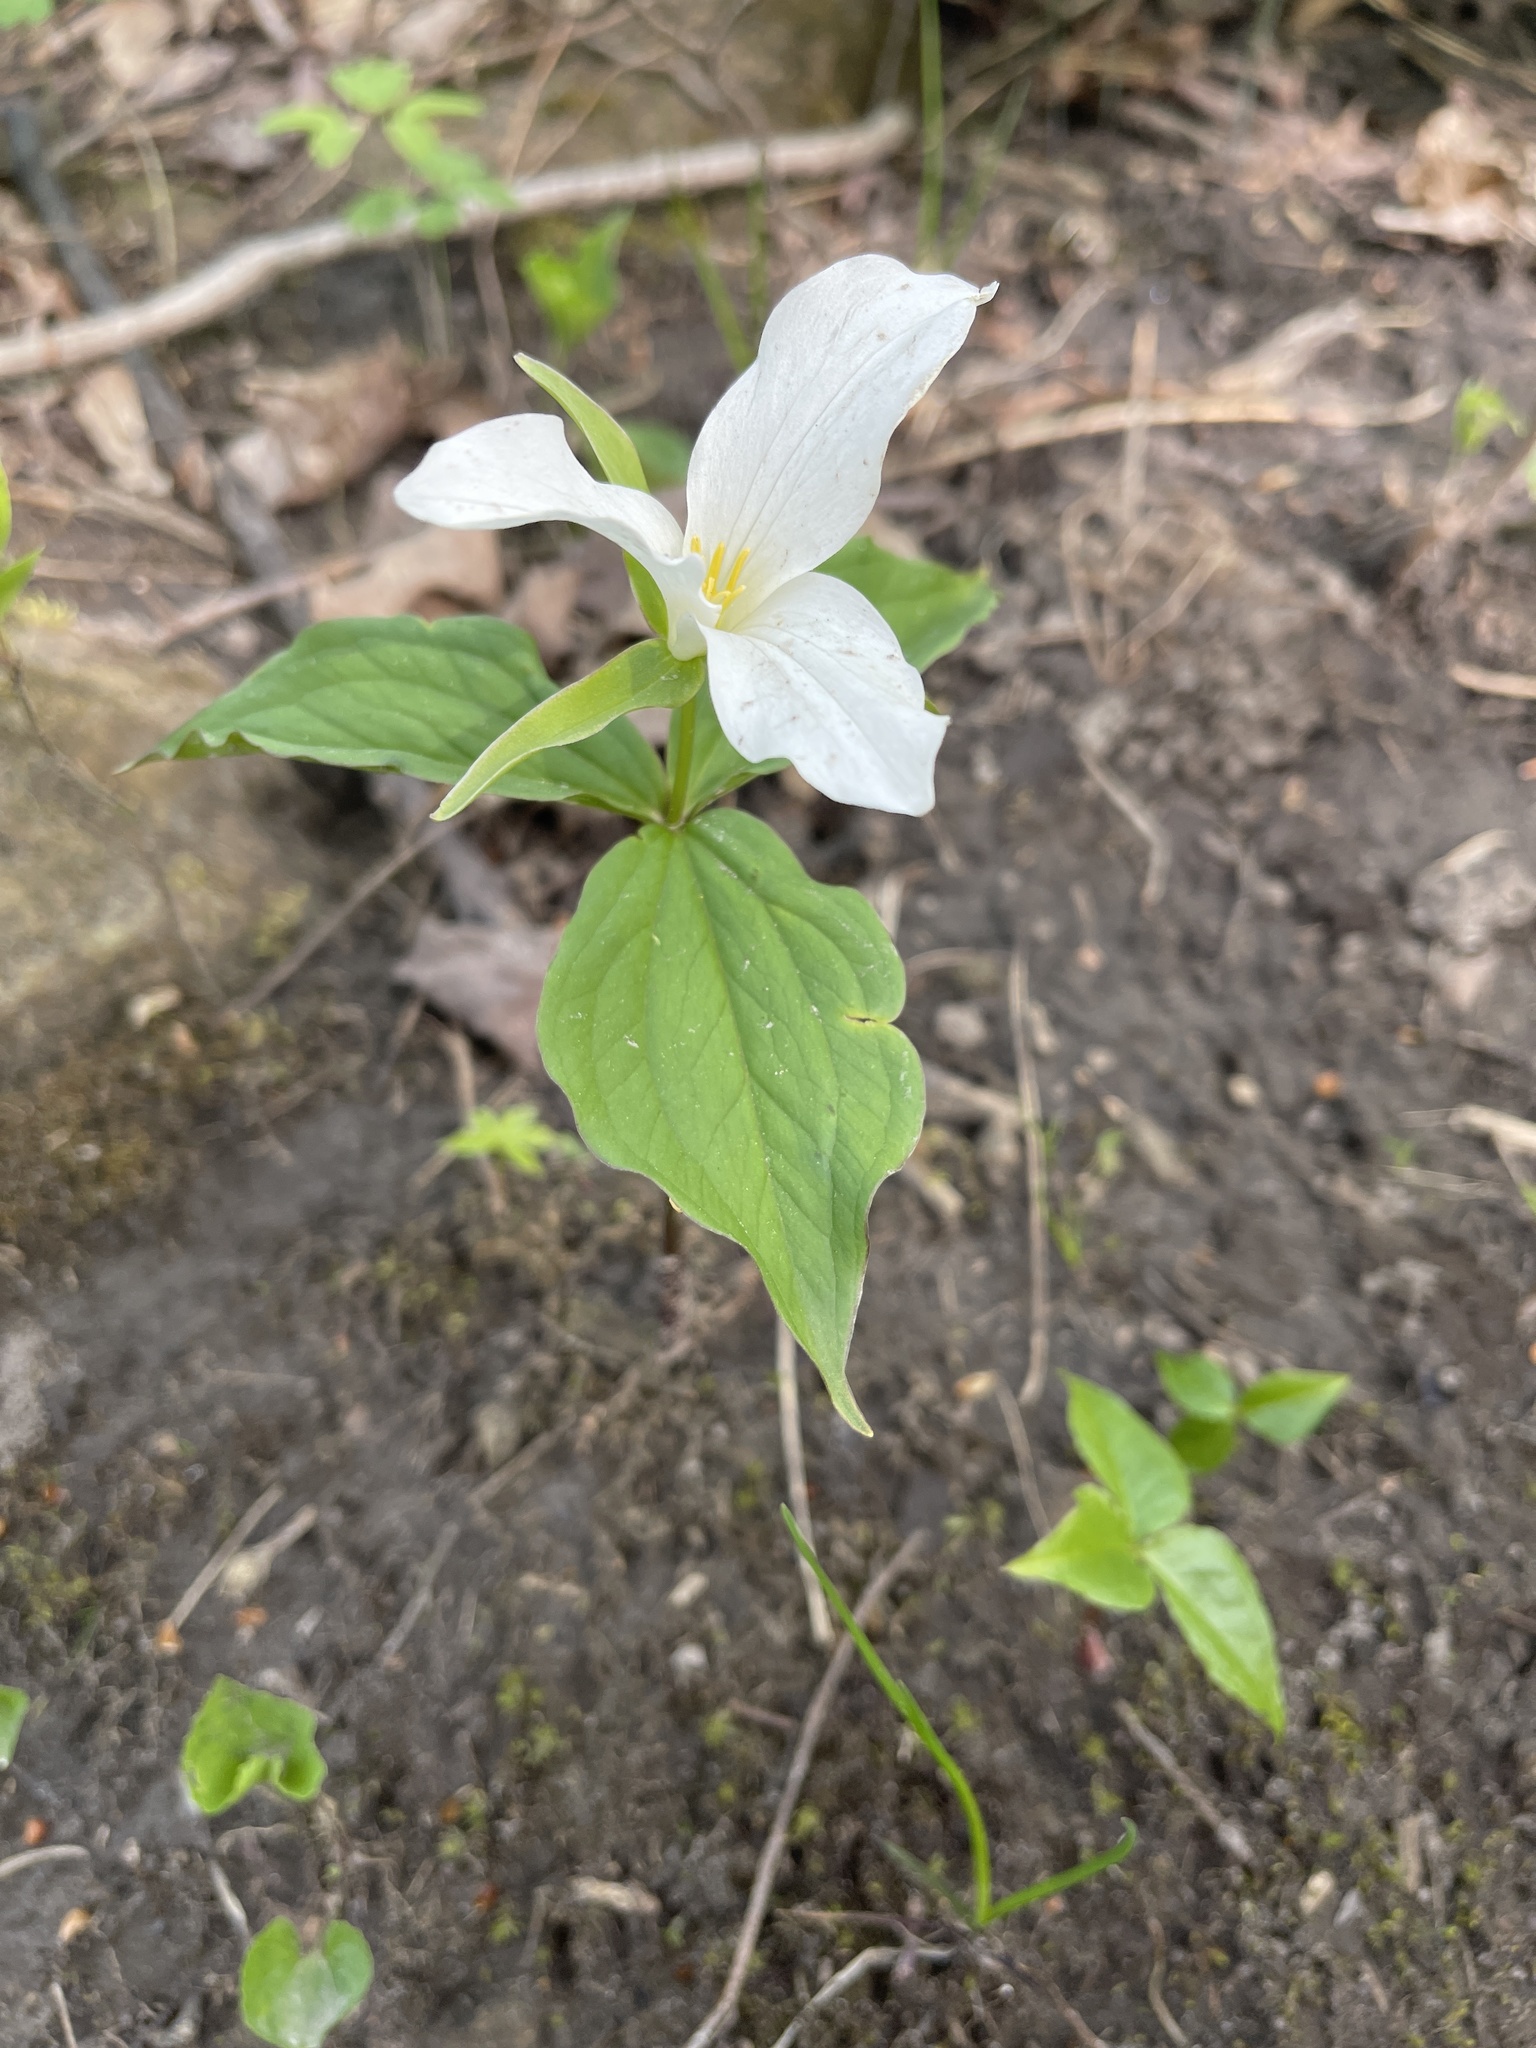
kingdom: Plantae
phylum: Tracheophyta
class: Liliopsida
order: Liliales
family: Melanthiaceae
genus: Trillium
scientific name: Trillium grandiflorum
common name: Great white trillium
